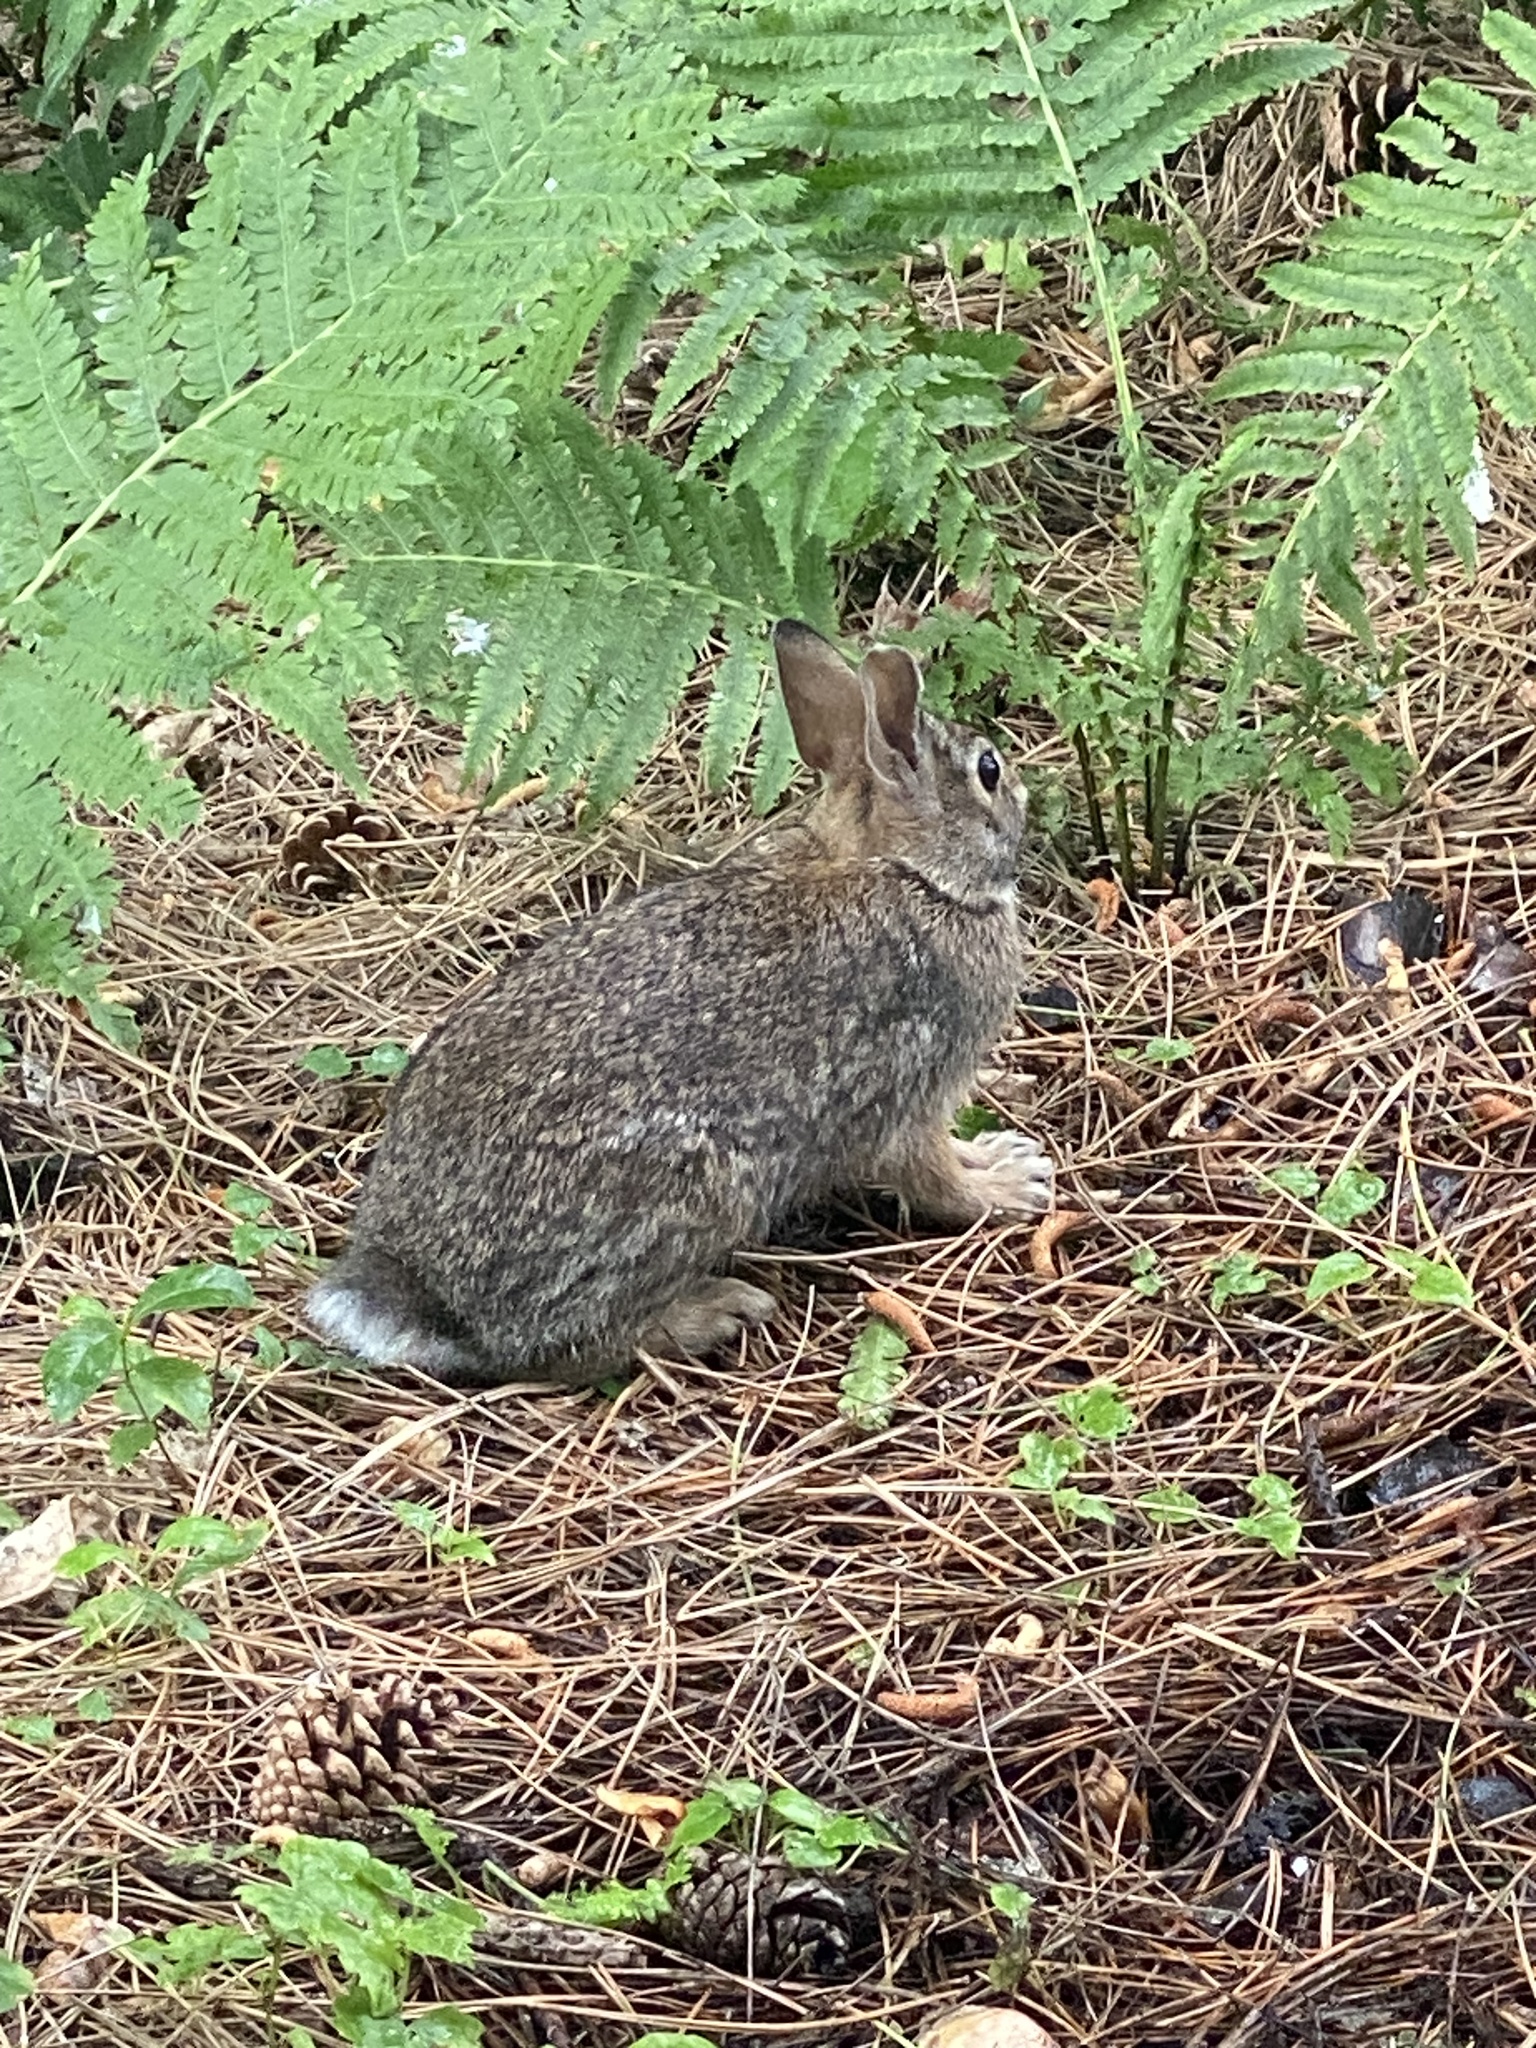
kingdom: Animalia
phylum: Chordata
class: Mammalia
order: Lagomorpha
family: Leporidae
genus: Sylvilagus
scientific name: Sylvilagus floridanus
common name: Eastern cottontail
